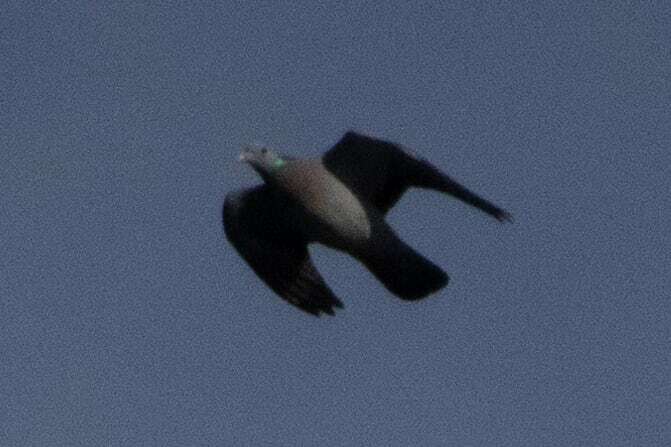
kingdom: Animalia
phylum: Chordata
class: Aves
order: Columbiformes
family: Columbidae
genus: Columba
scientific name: Columba oenas
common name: Stock dove
